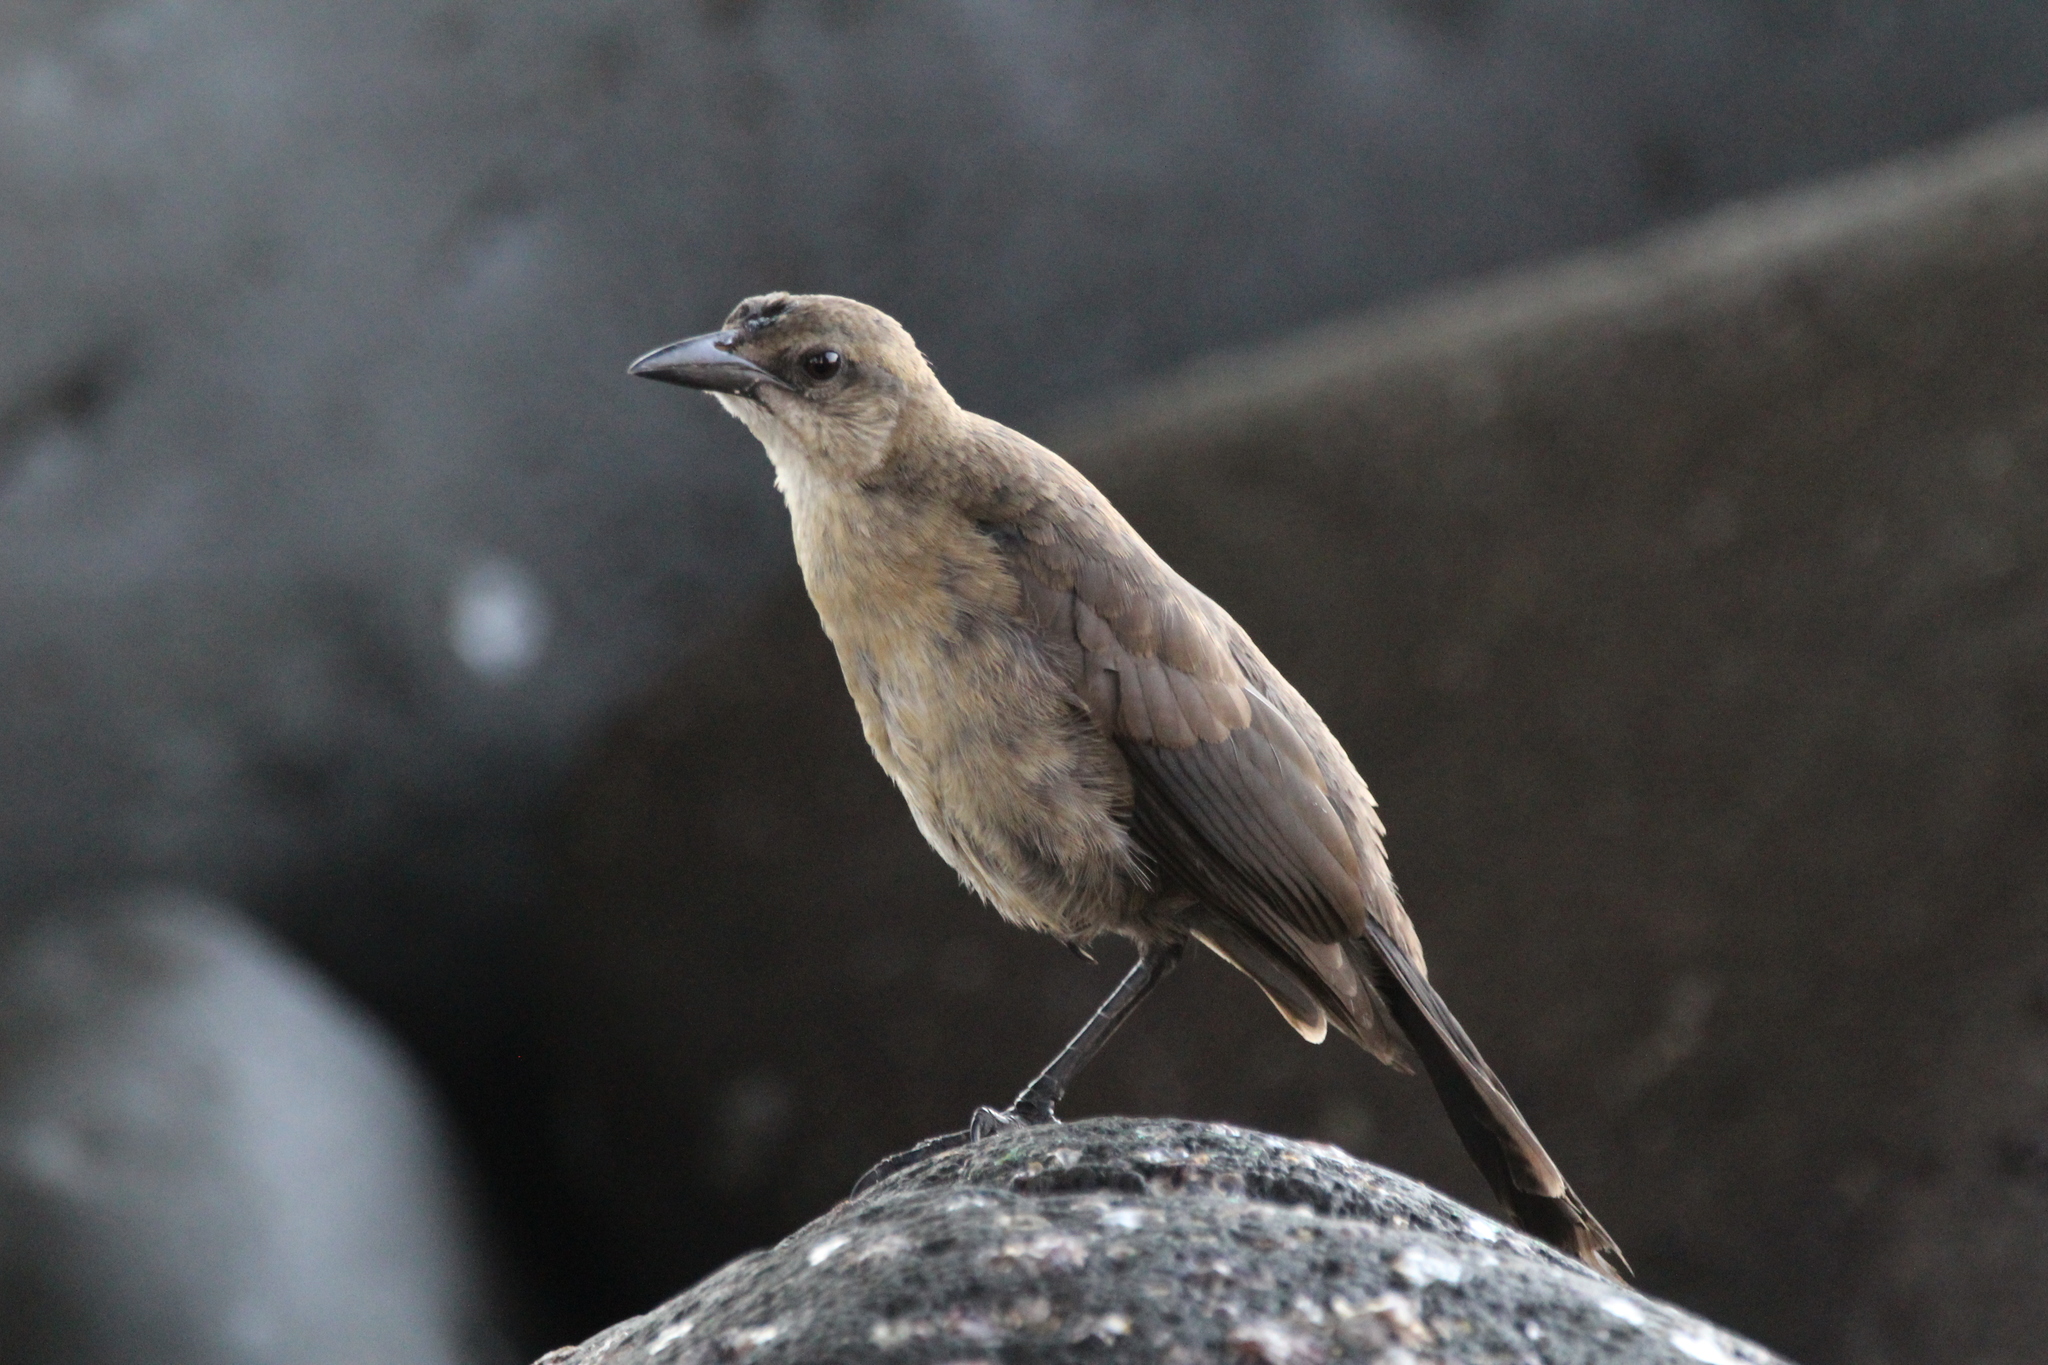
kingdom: Animalia
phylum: Chordata
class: Aves
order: Passeriformes
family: Icteridae
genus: Quiscalus
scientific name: Quiscalus mexicanus
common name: Great-tailed grackle
